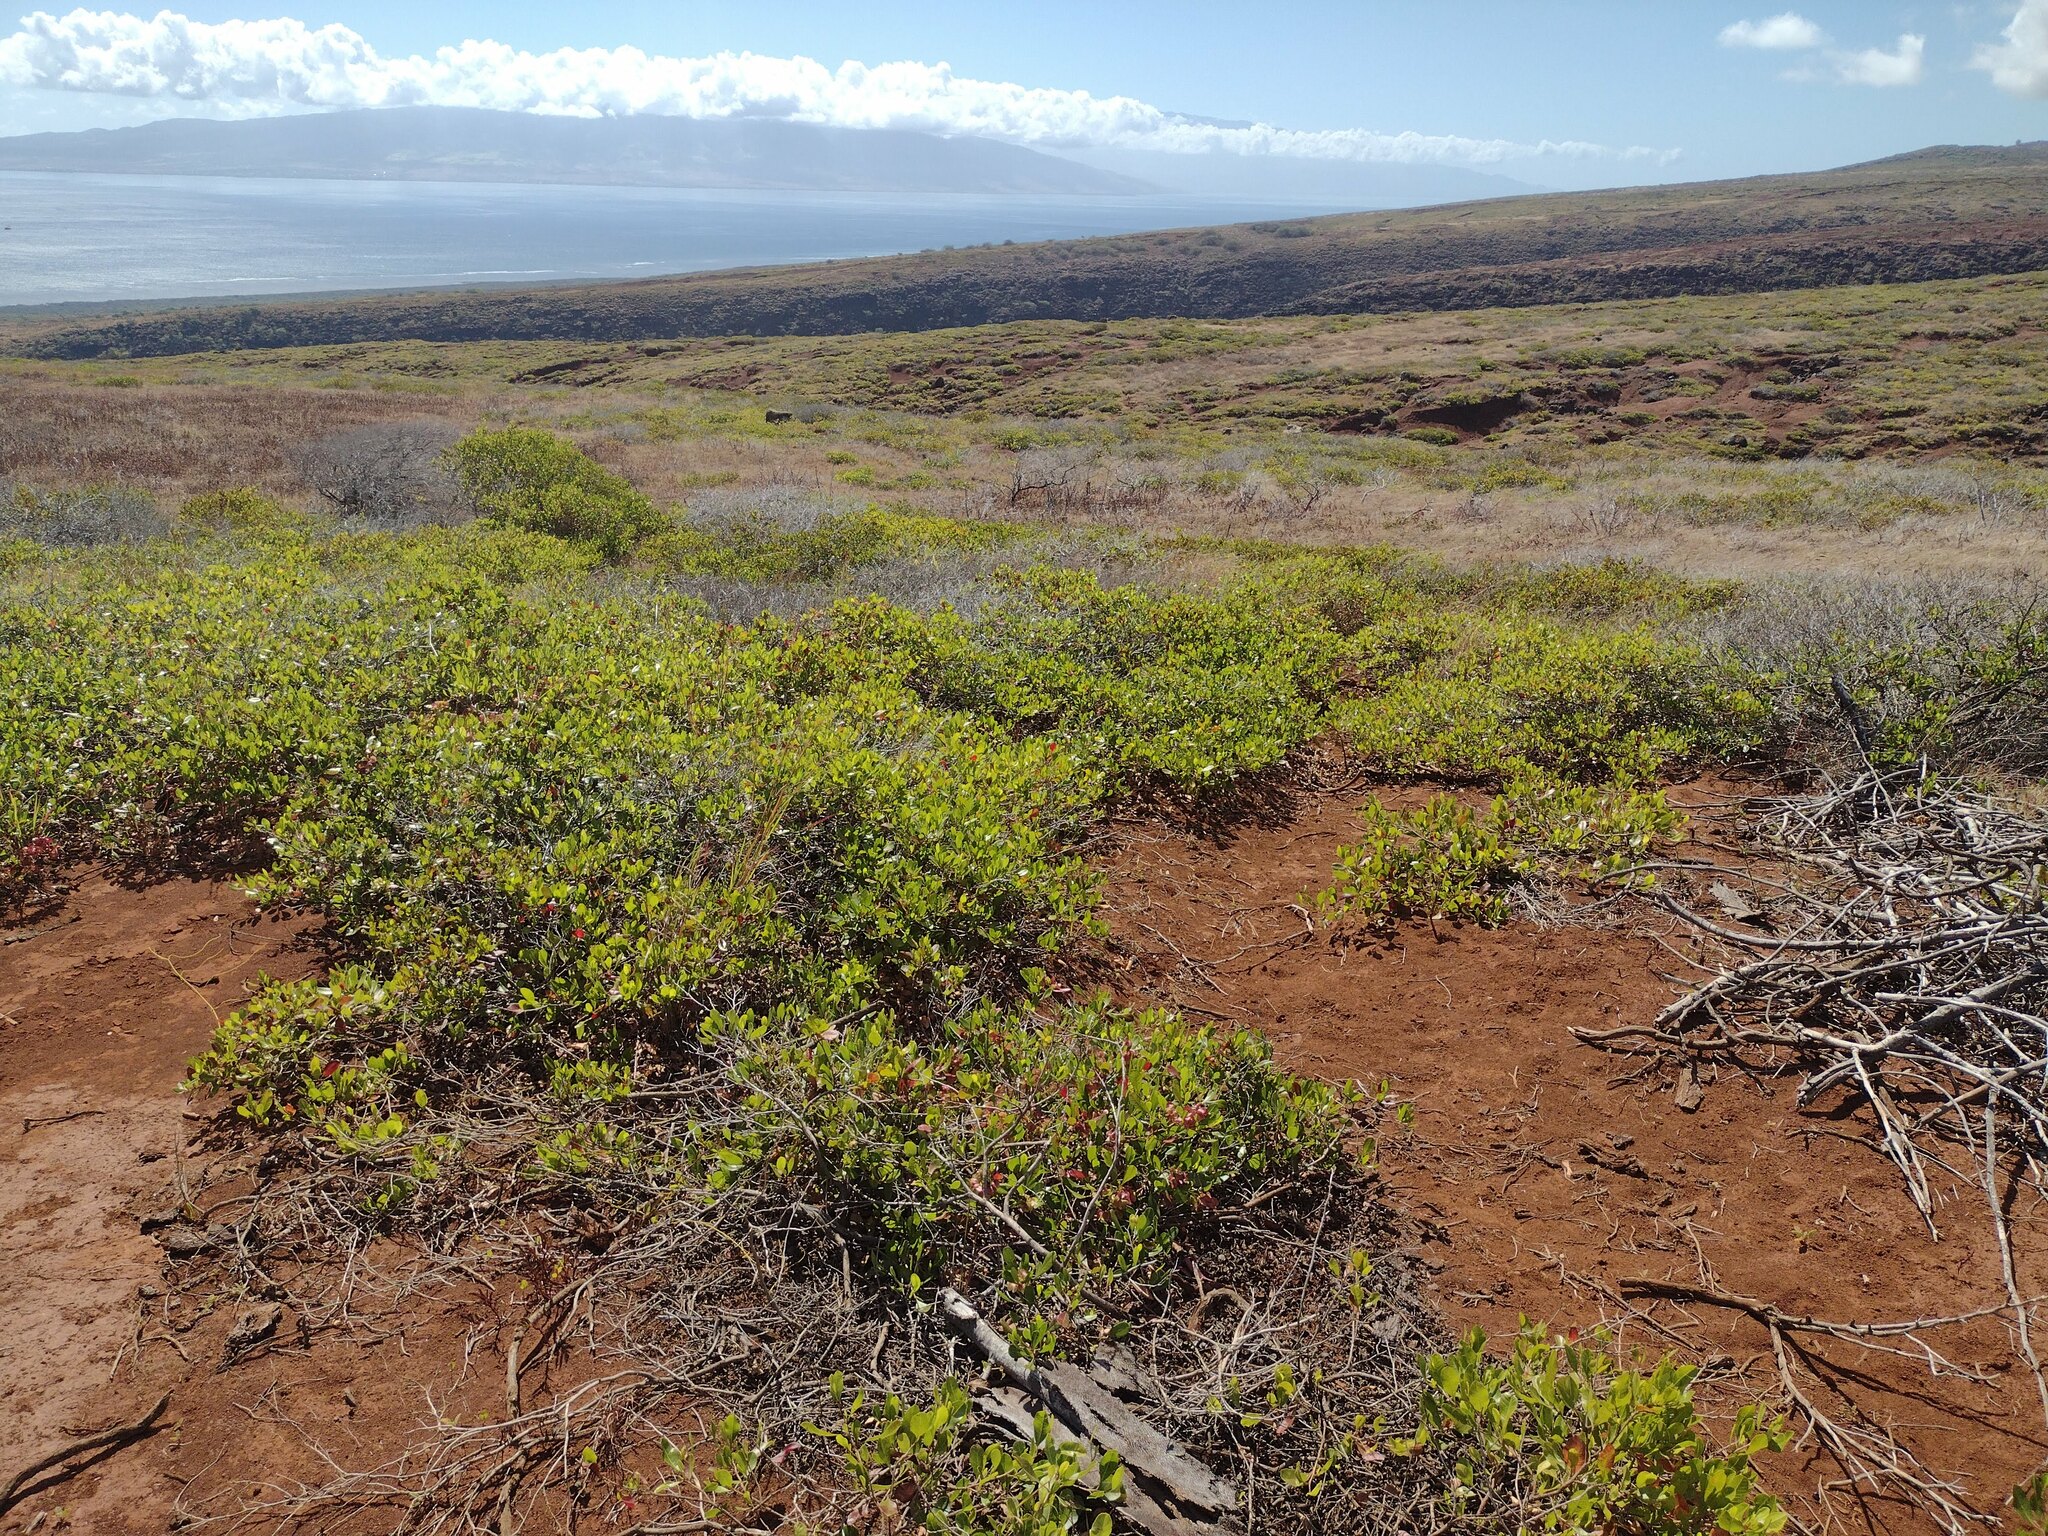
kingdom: Plantae
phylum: Tracheophyta
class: Magnoliopsida
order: Sapindales
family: Sapindaceae
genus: Dodonaea
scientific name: Dodonaea viscosa
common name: Hopbush
